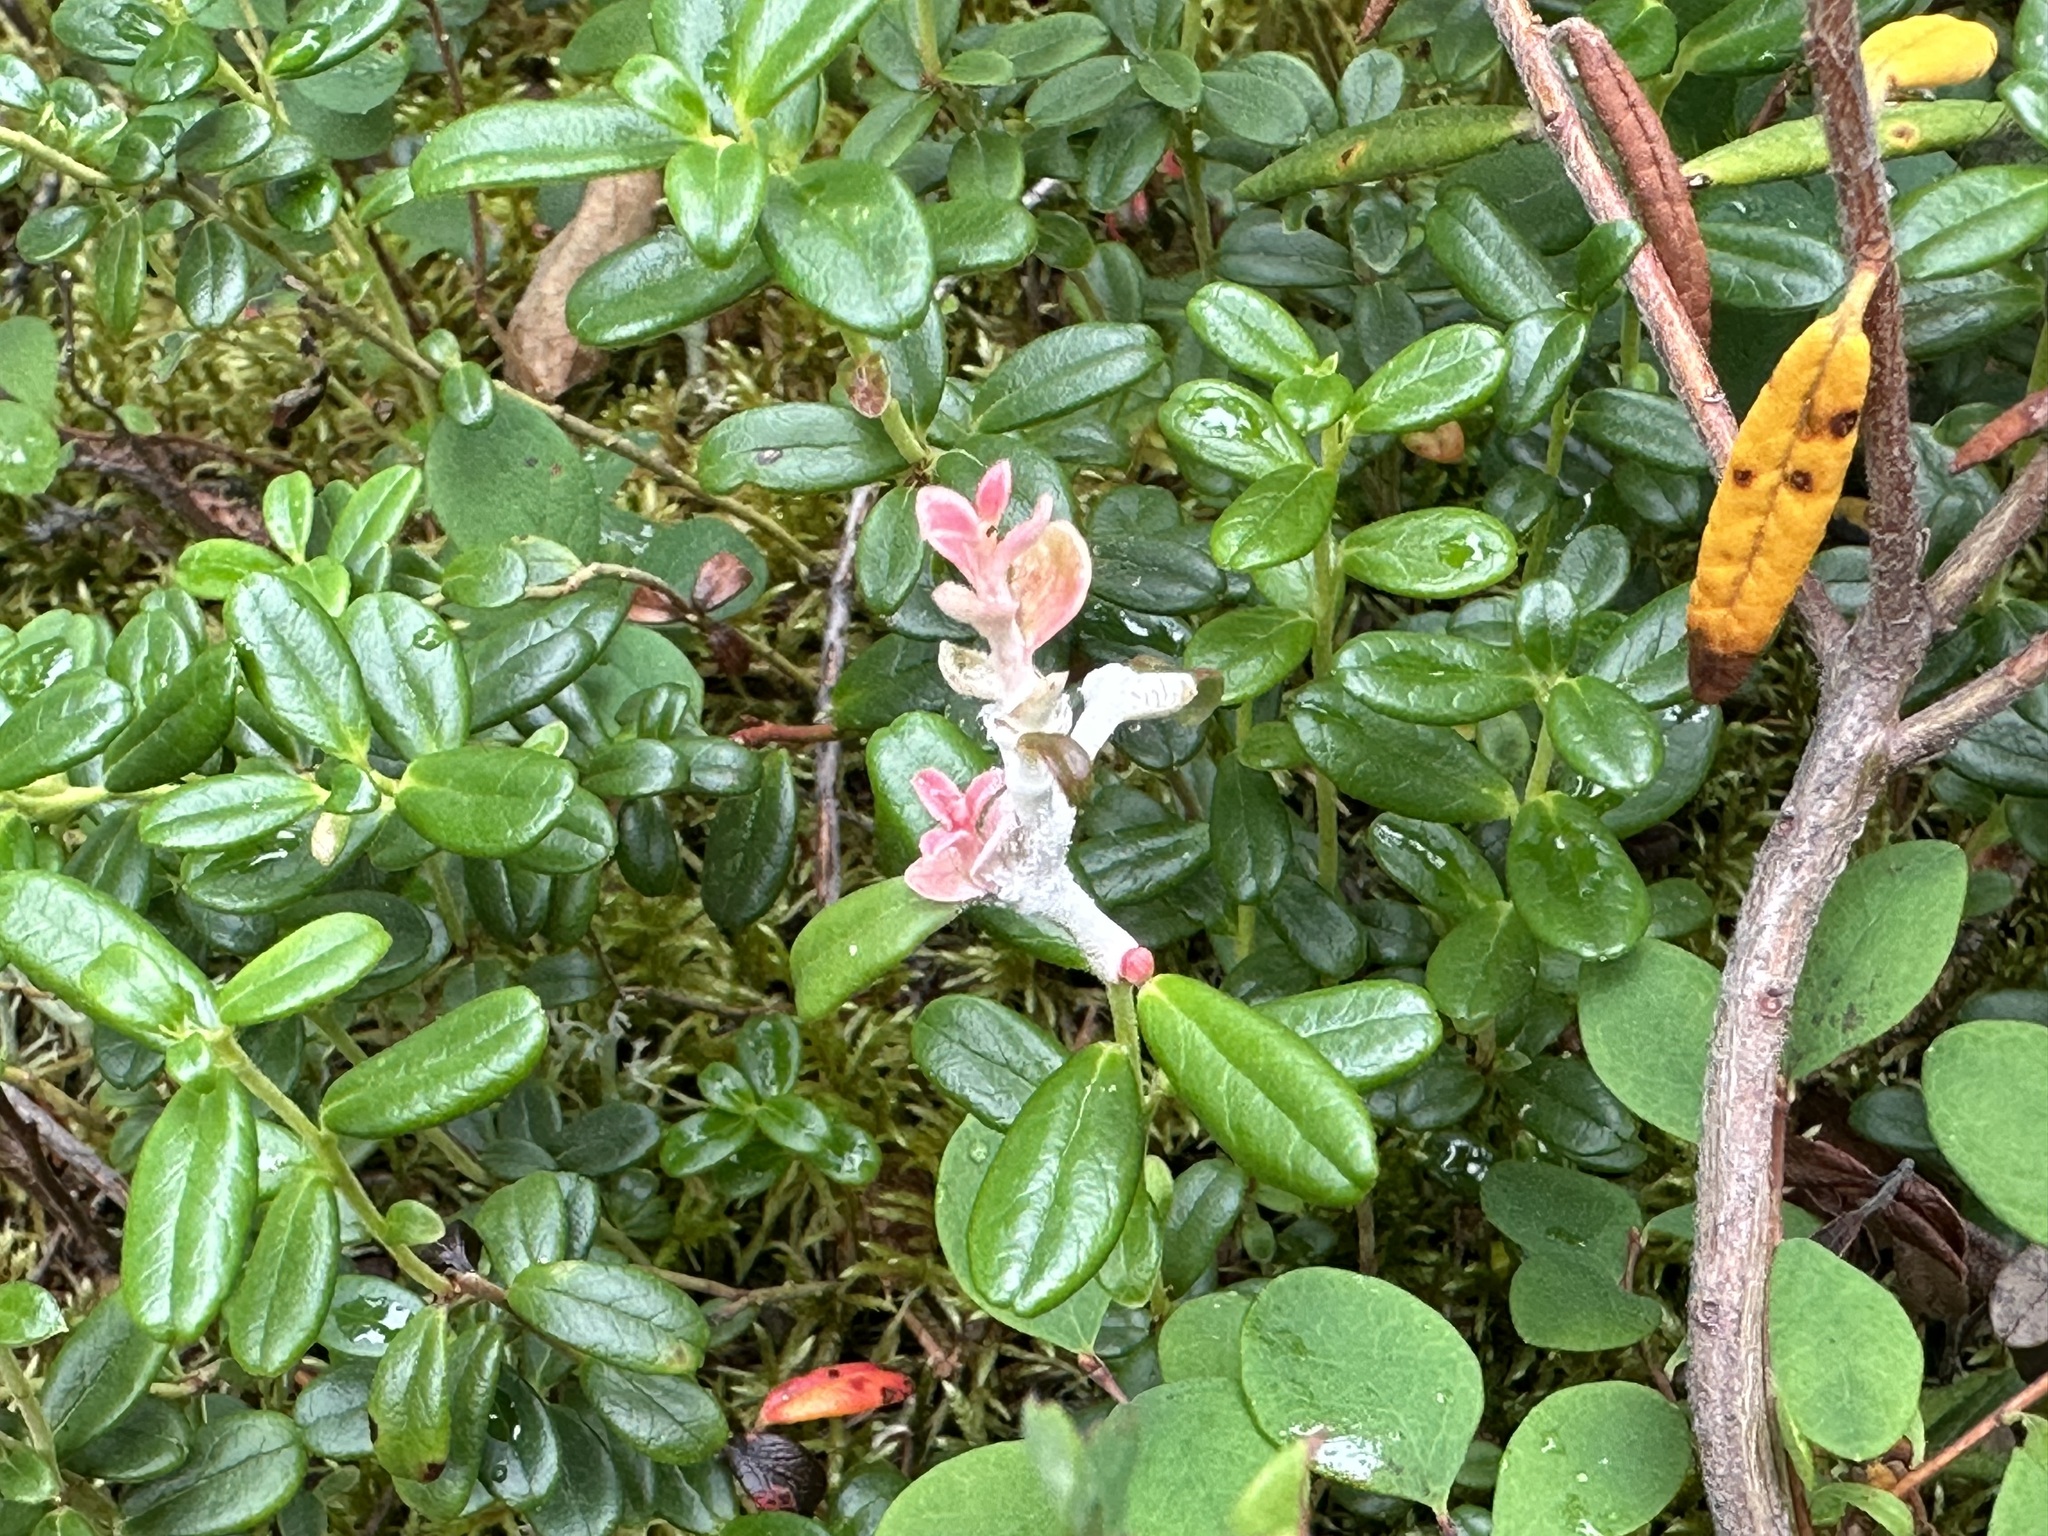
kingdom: Fungi
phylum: Basidiomycota
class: Exobasidiomycetes
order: Exobasidiales
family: Exobasidiaceae
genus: Exobasidium
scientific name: Exobasidium vaccinii
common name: Cowberry redleaf
